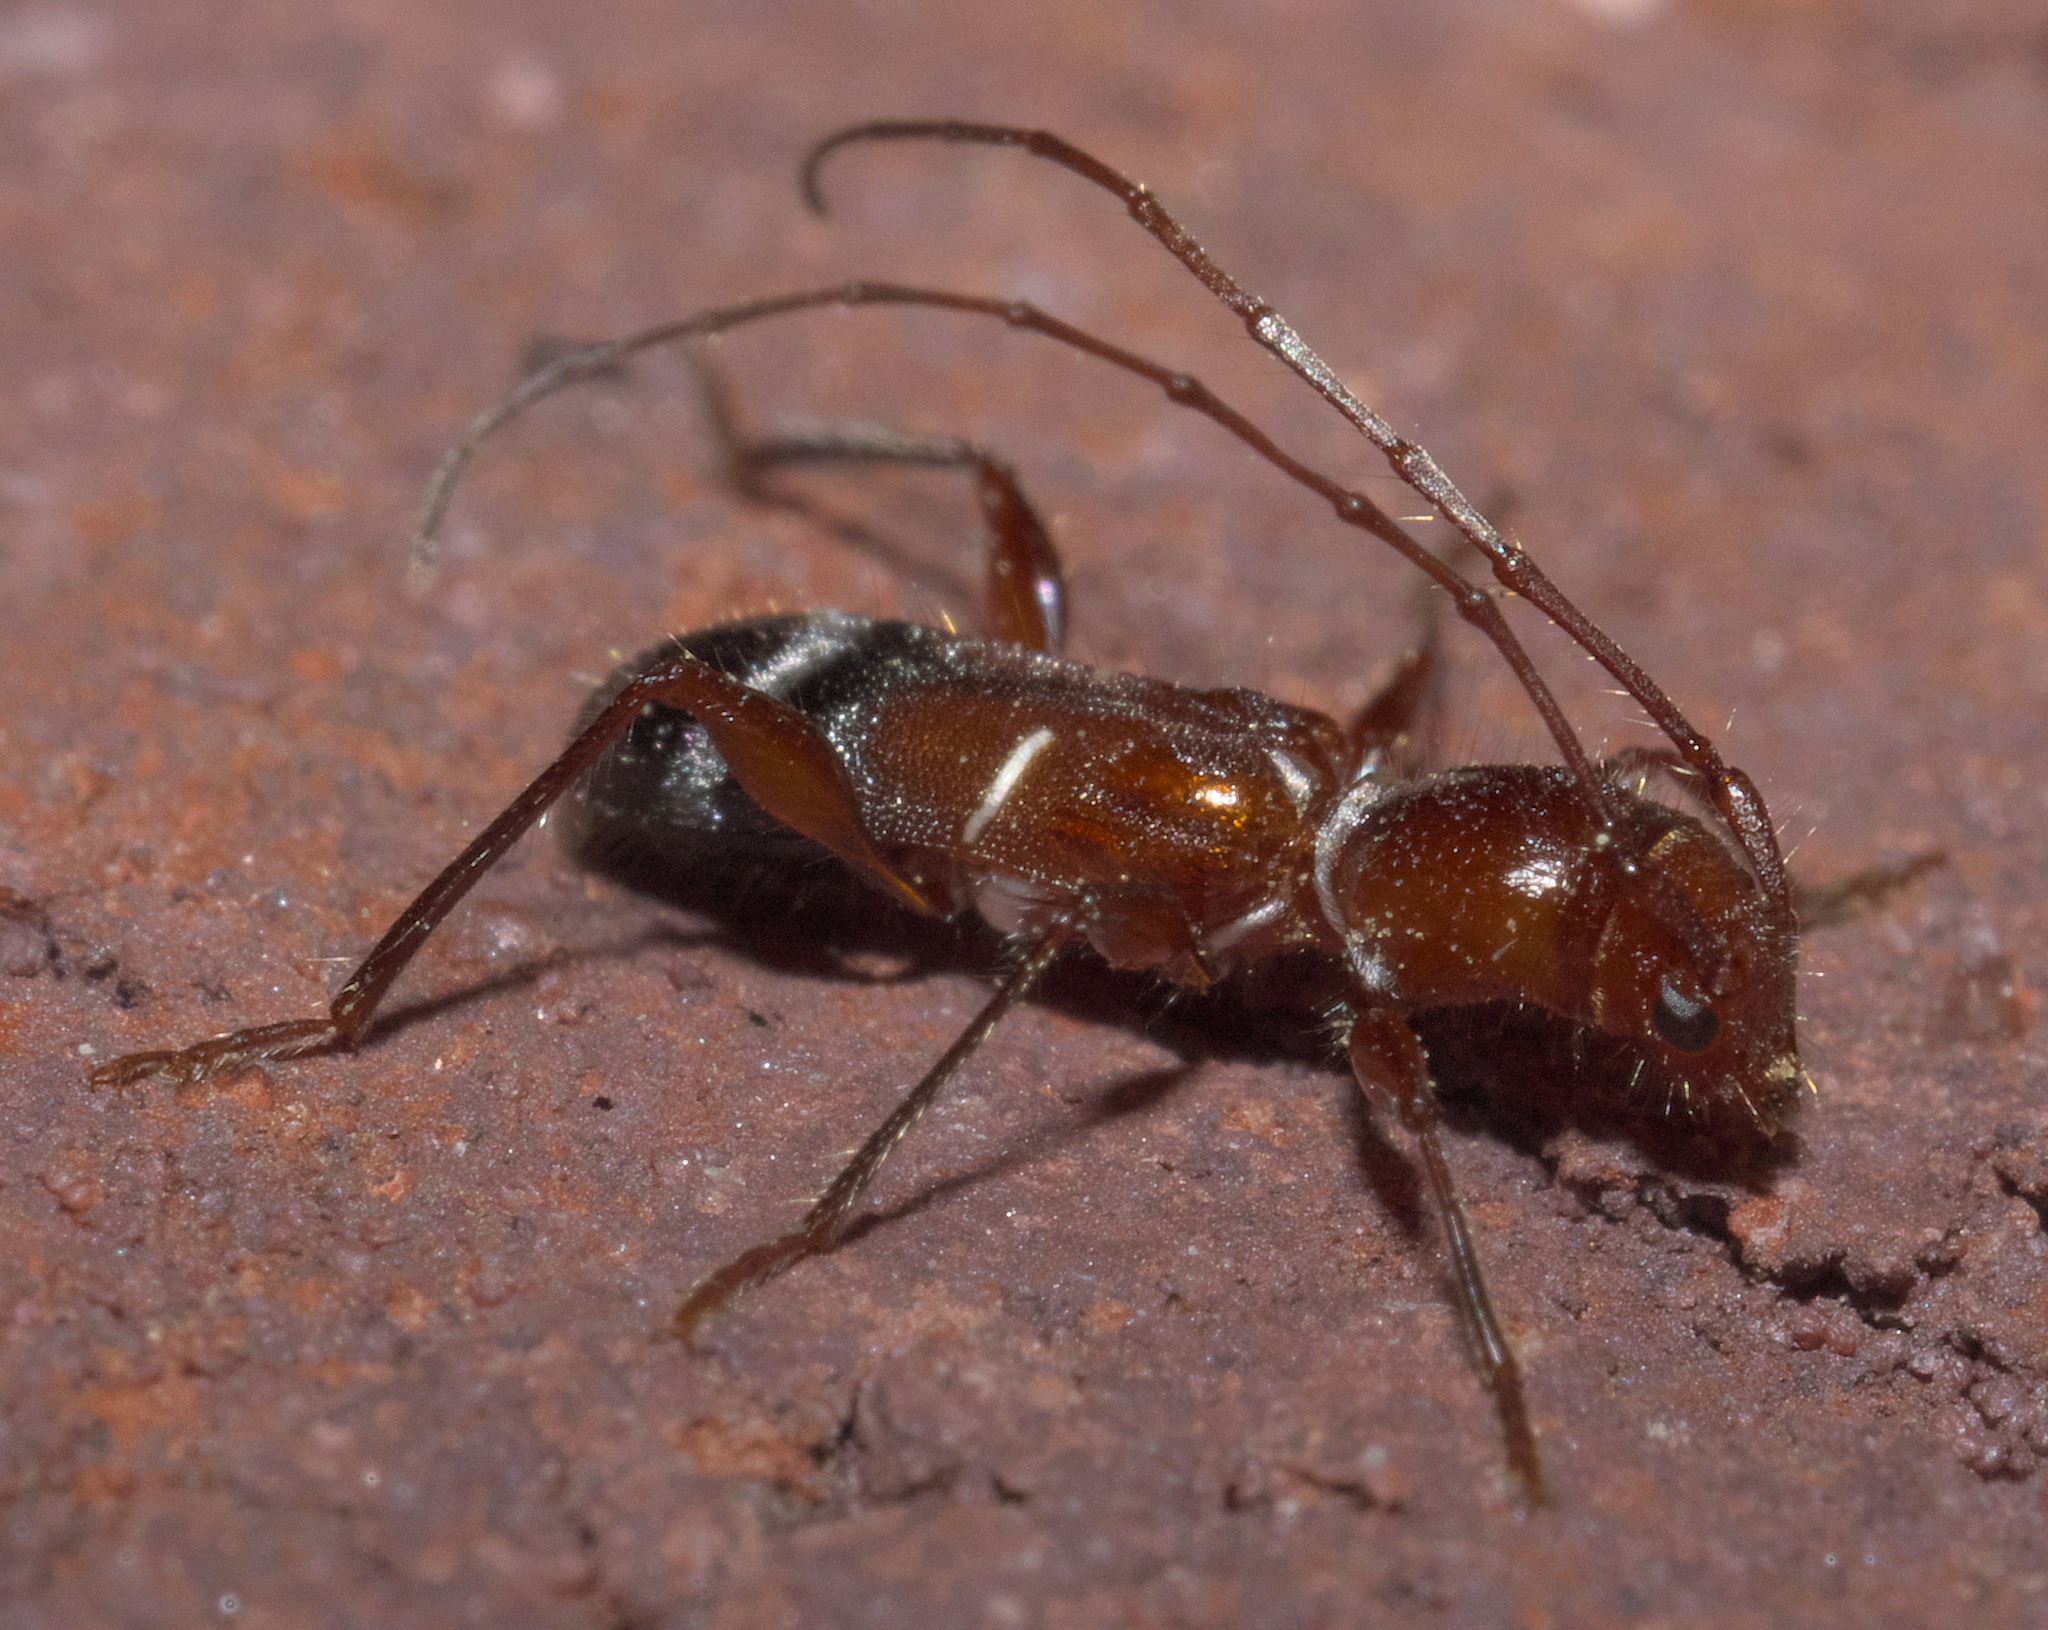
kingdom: Animalia
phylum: Arthropoda
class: Insecta
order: Coleoptera
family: Cerambycidae
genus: Euderces
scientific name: Euderces pini
